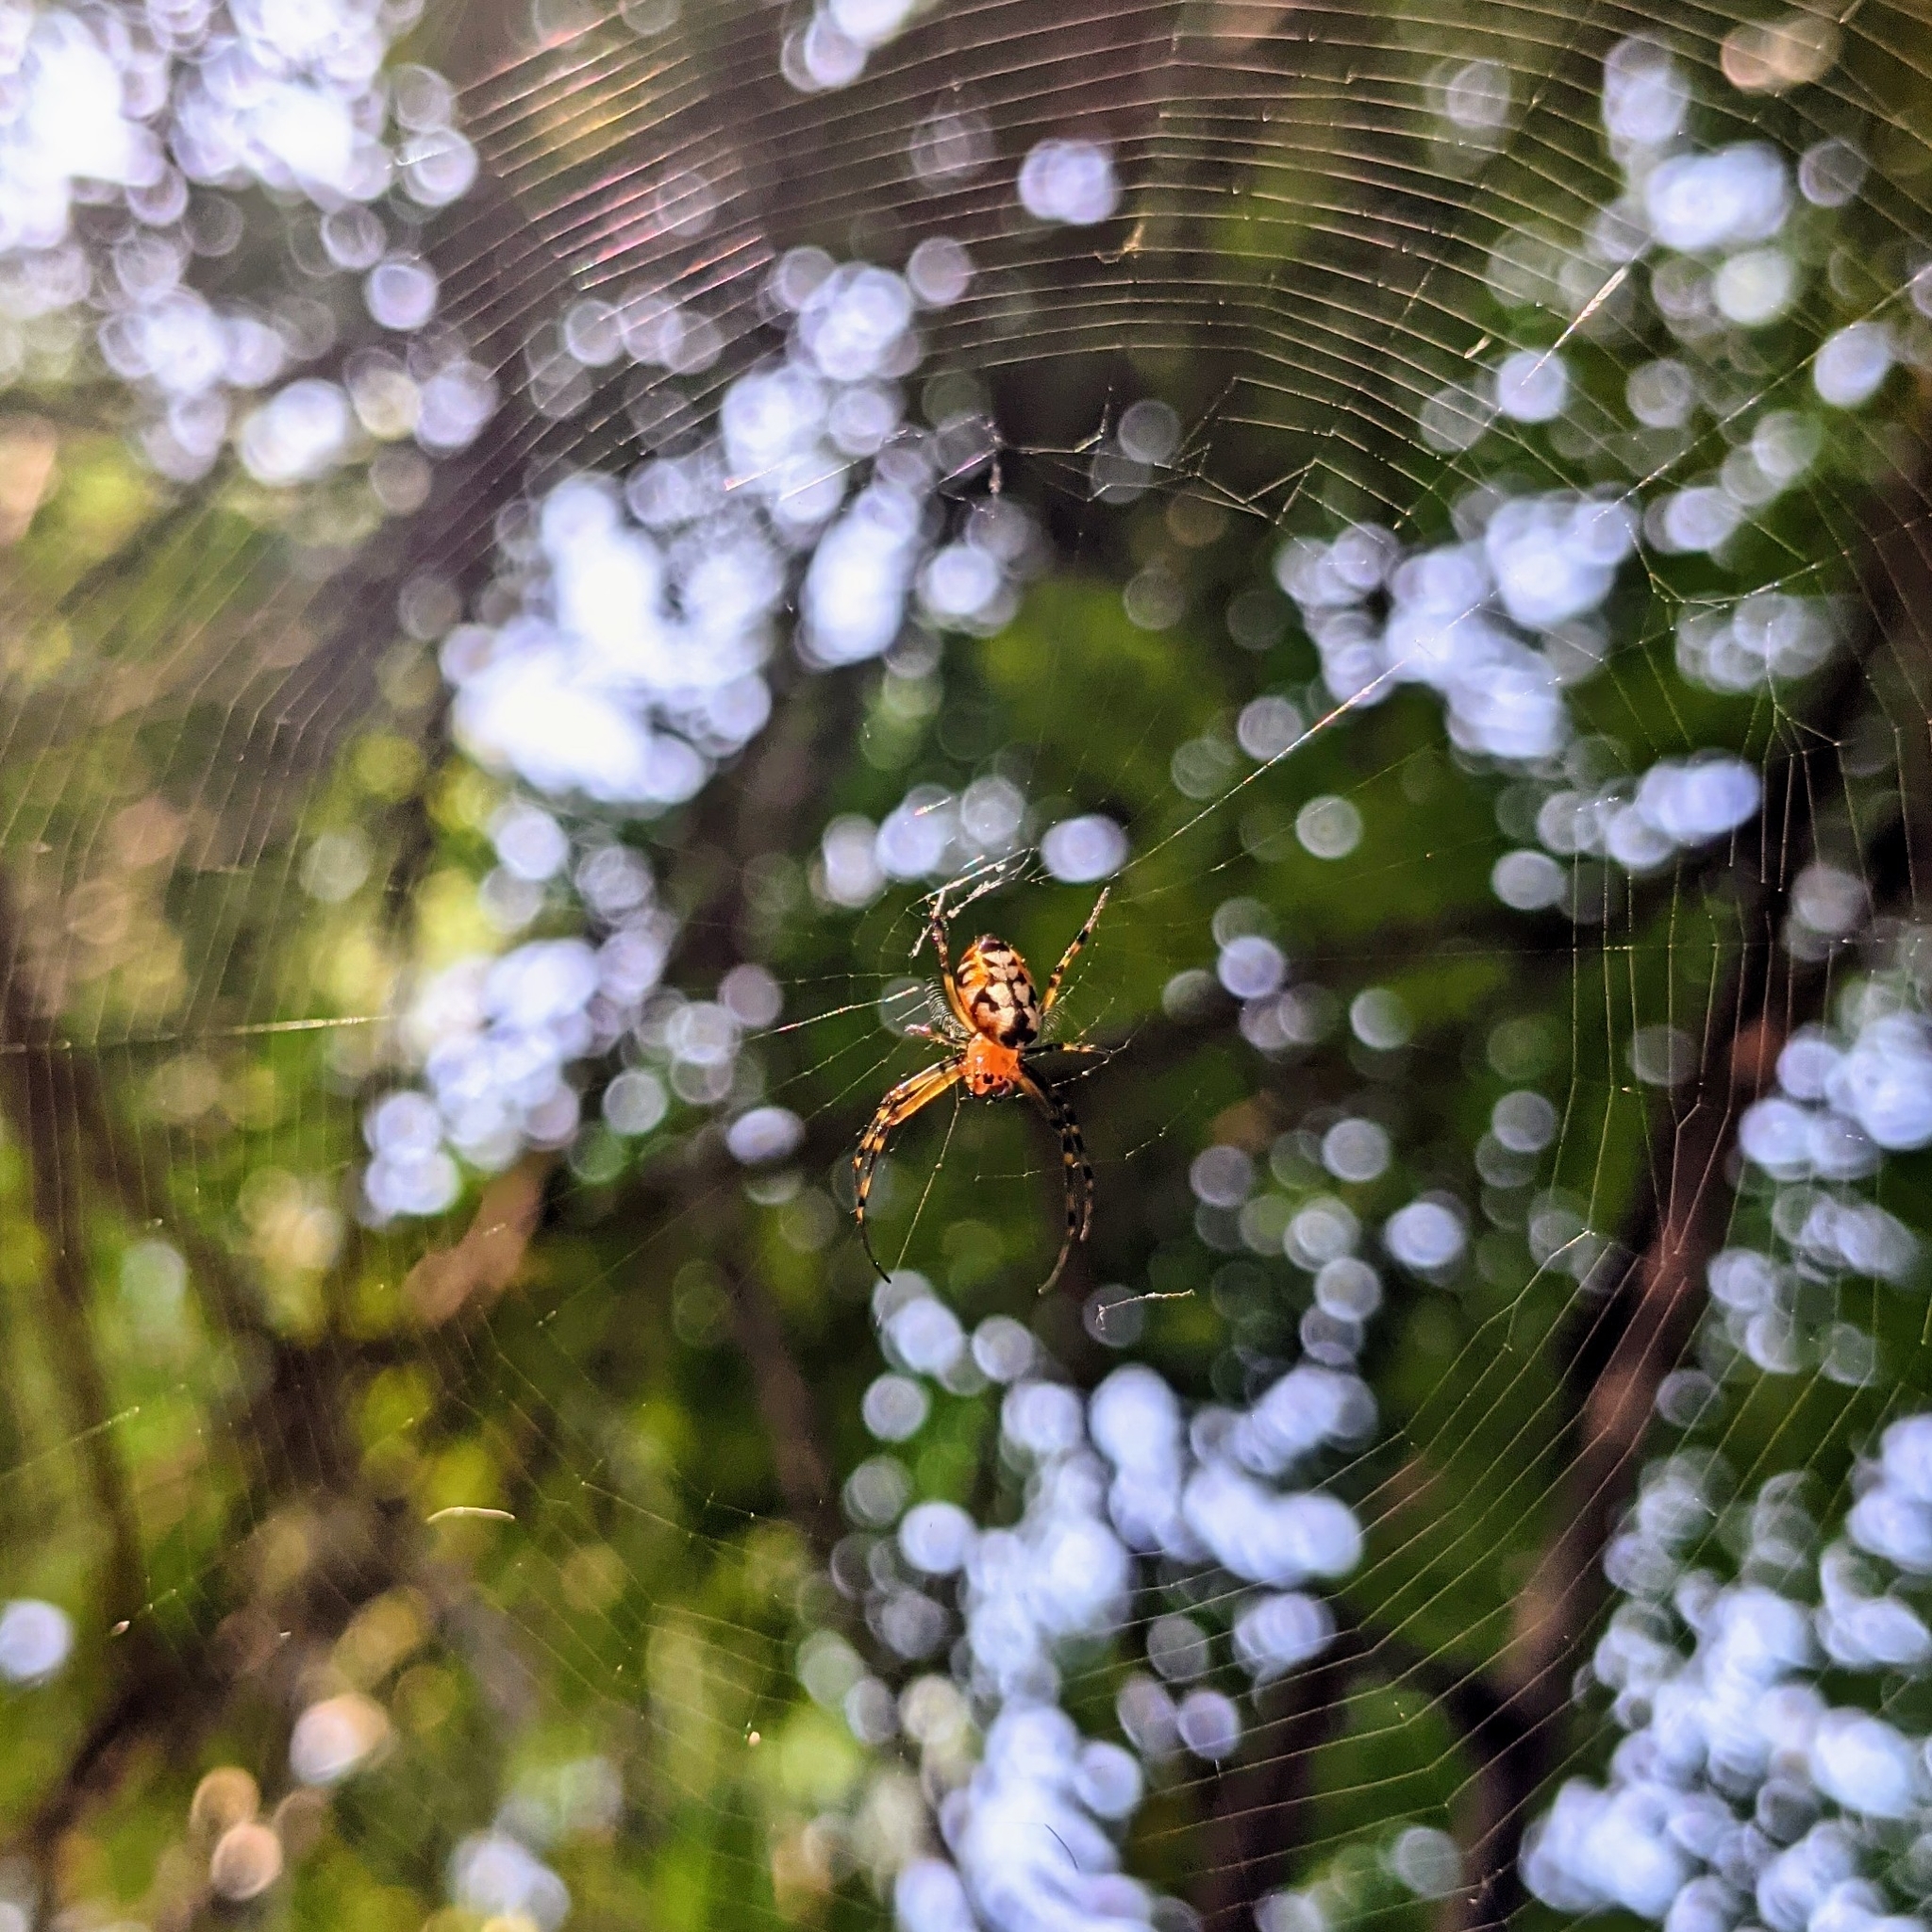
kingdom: Animalia
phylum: Arthropoda
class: Arachnida
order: Araneae
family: Tetragnathidae
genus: Leucauge
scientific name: Leucauge fastigata
